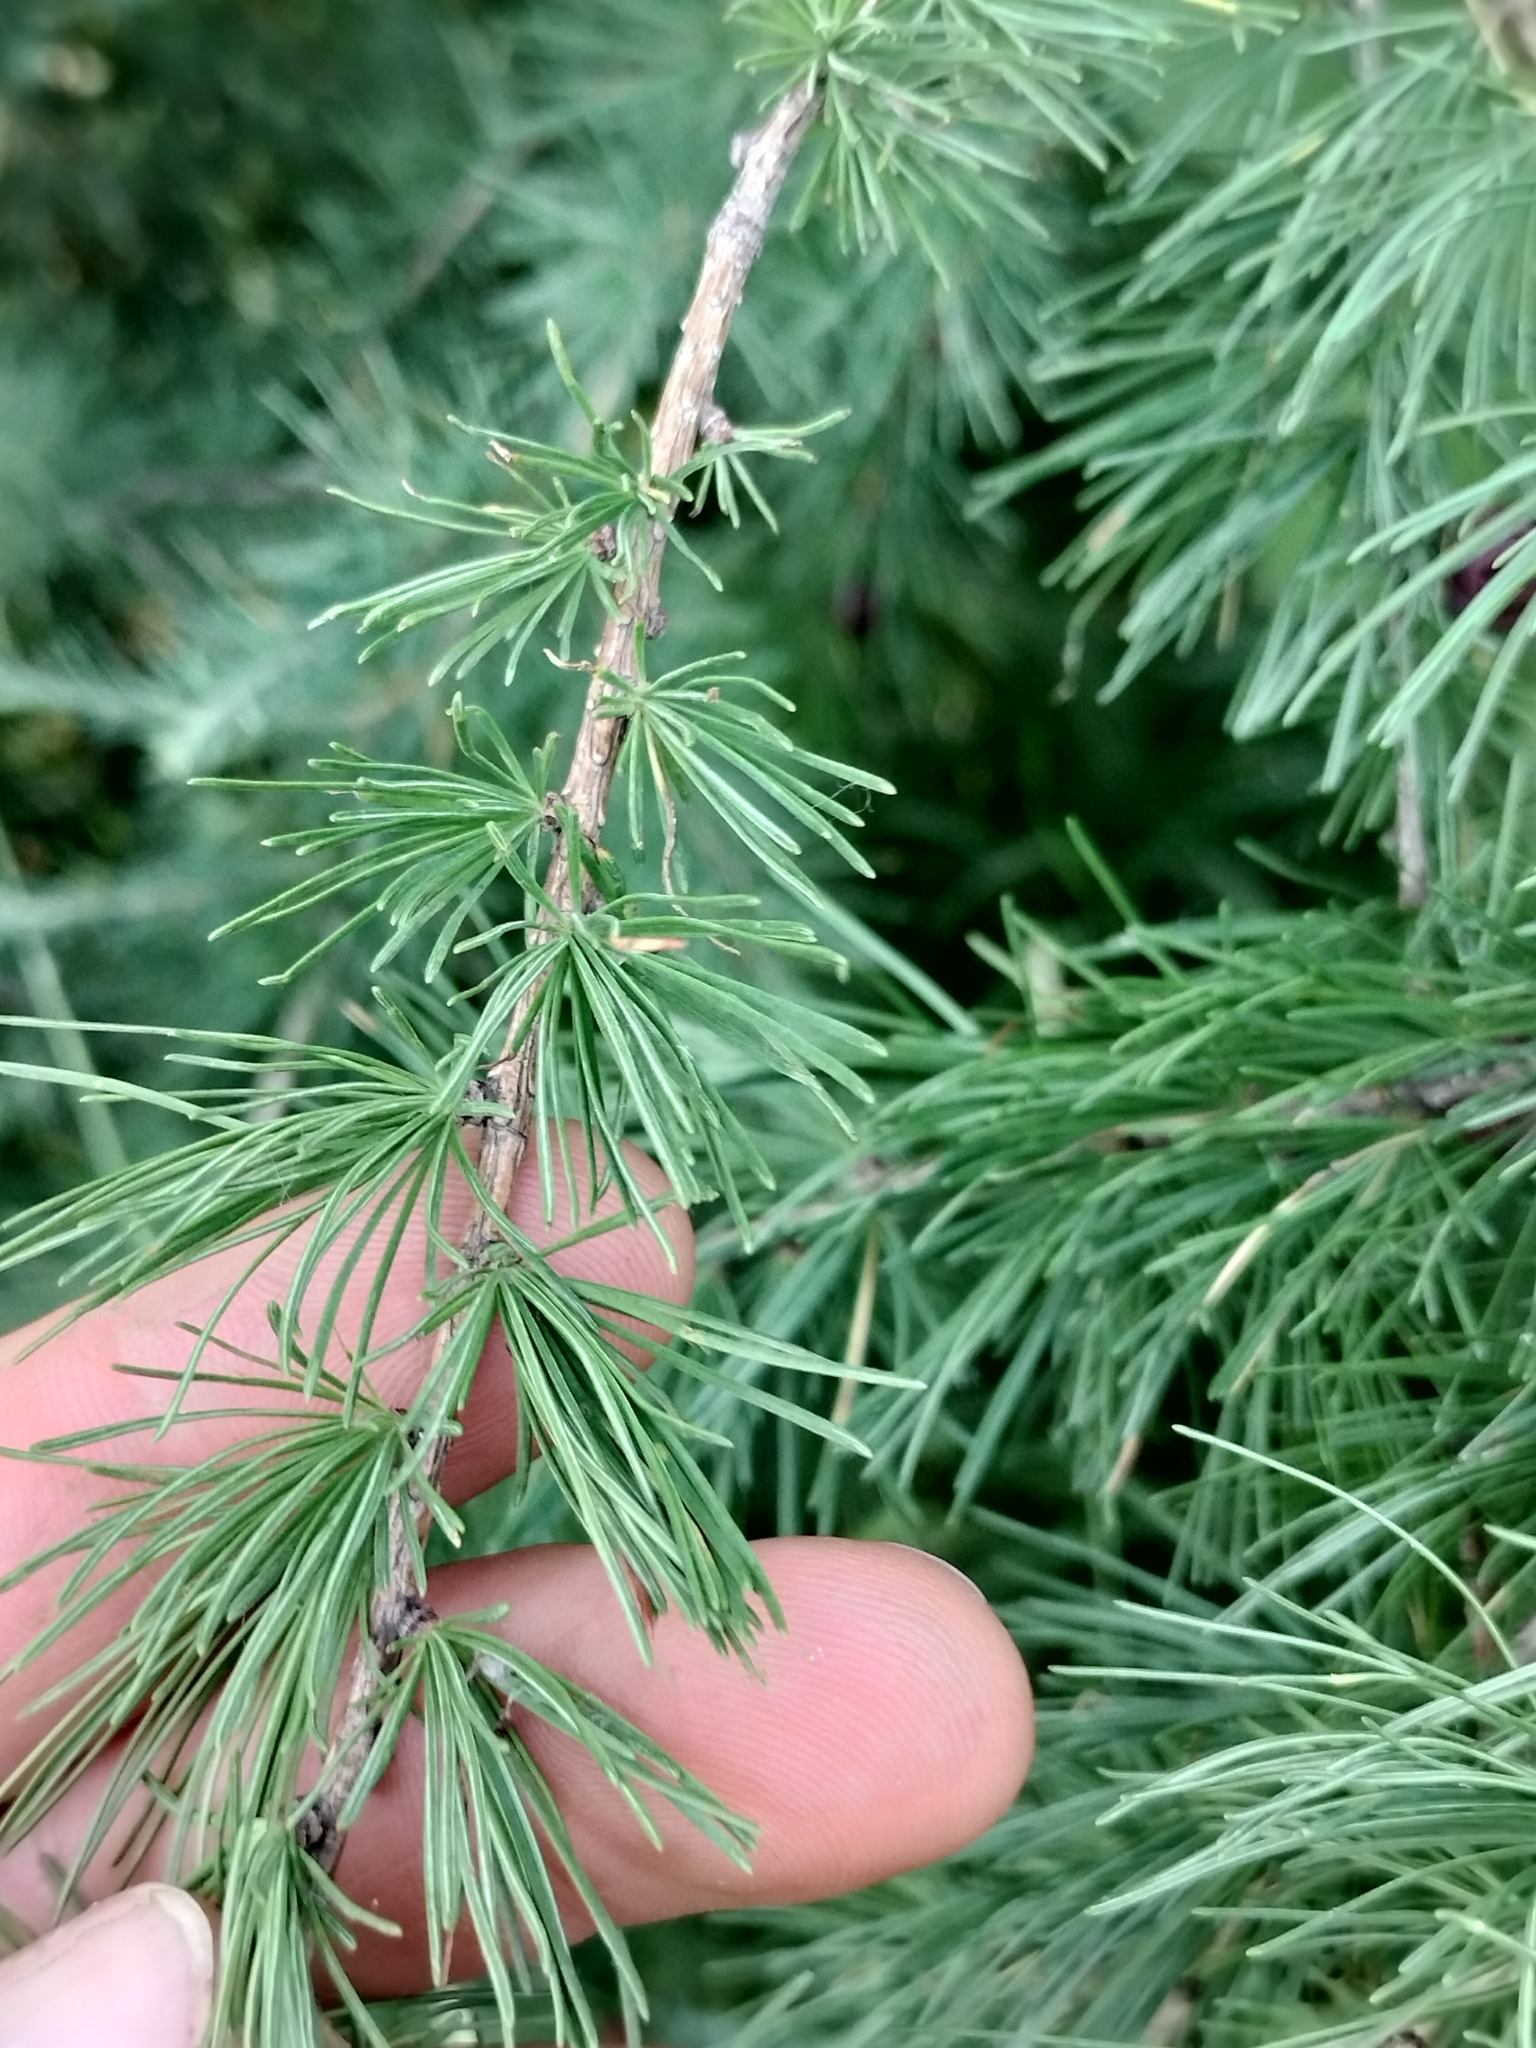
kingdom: Plantae
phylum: Tracheophyta
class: Pinopsida
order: Pinales
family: Pinaceae
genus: Larix
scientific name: Larix laricina
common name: American larch
